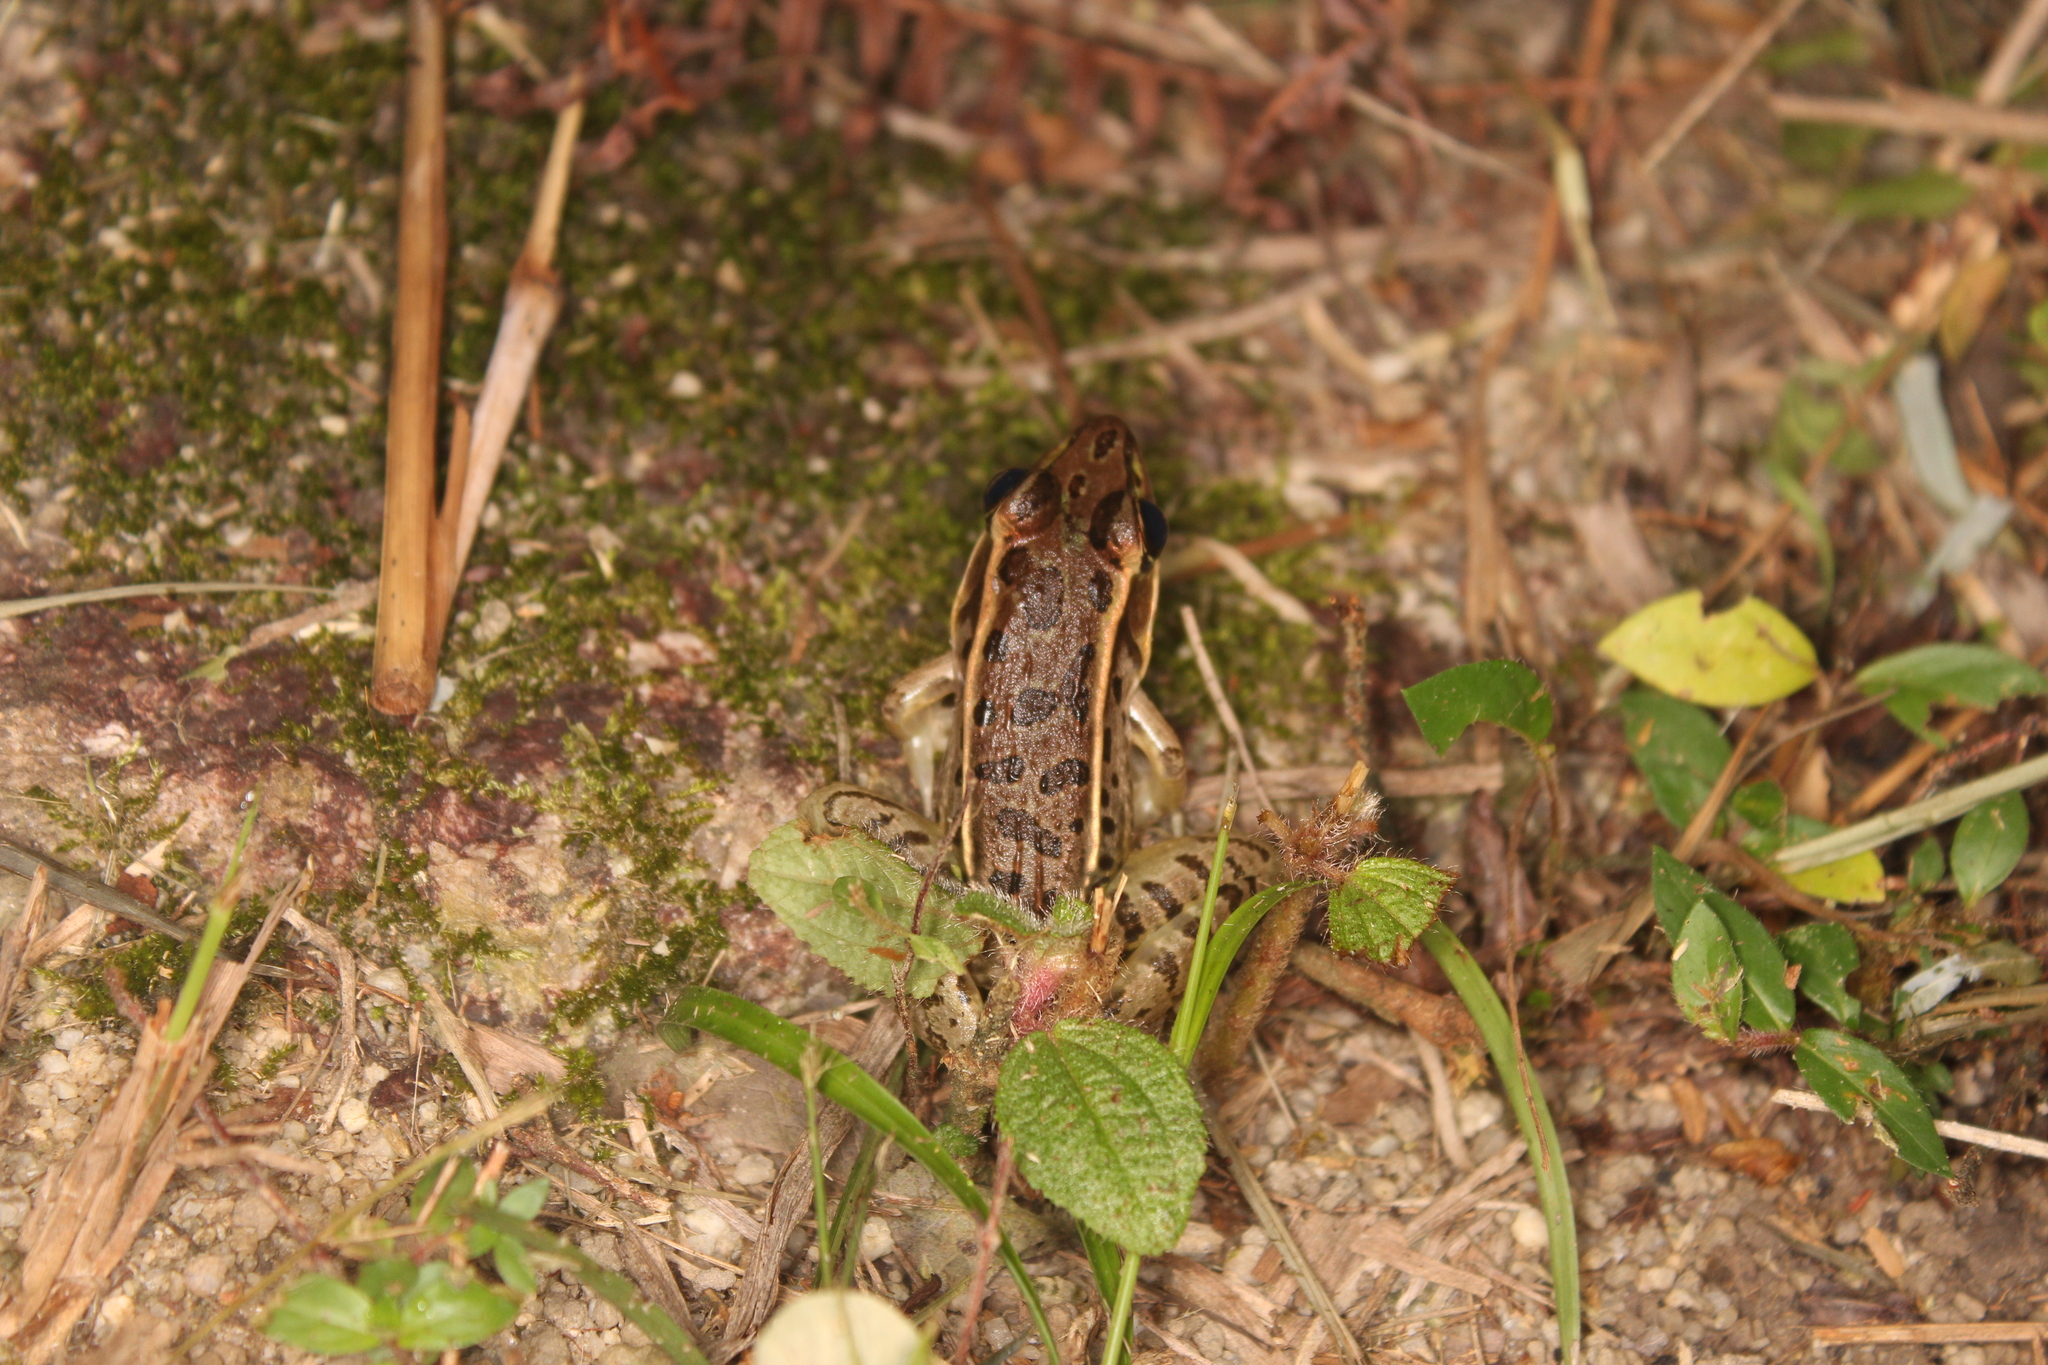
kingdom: Animalia
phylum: Chordata
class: Amphibia
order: Anura
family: Ranidae
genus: Lithobates
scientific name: Lithobates brownorum
